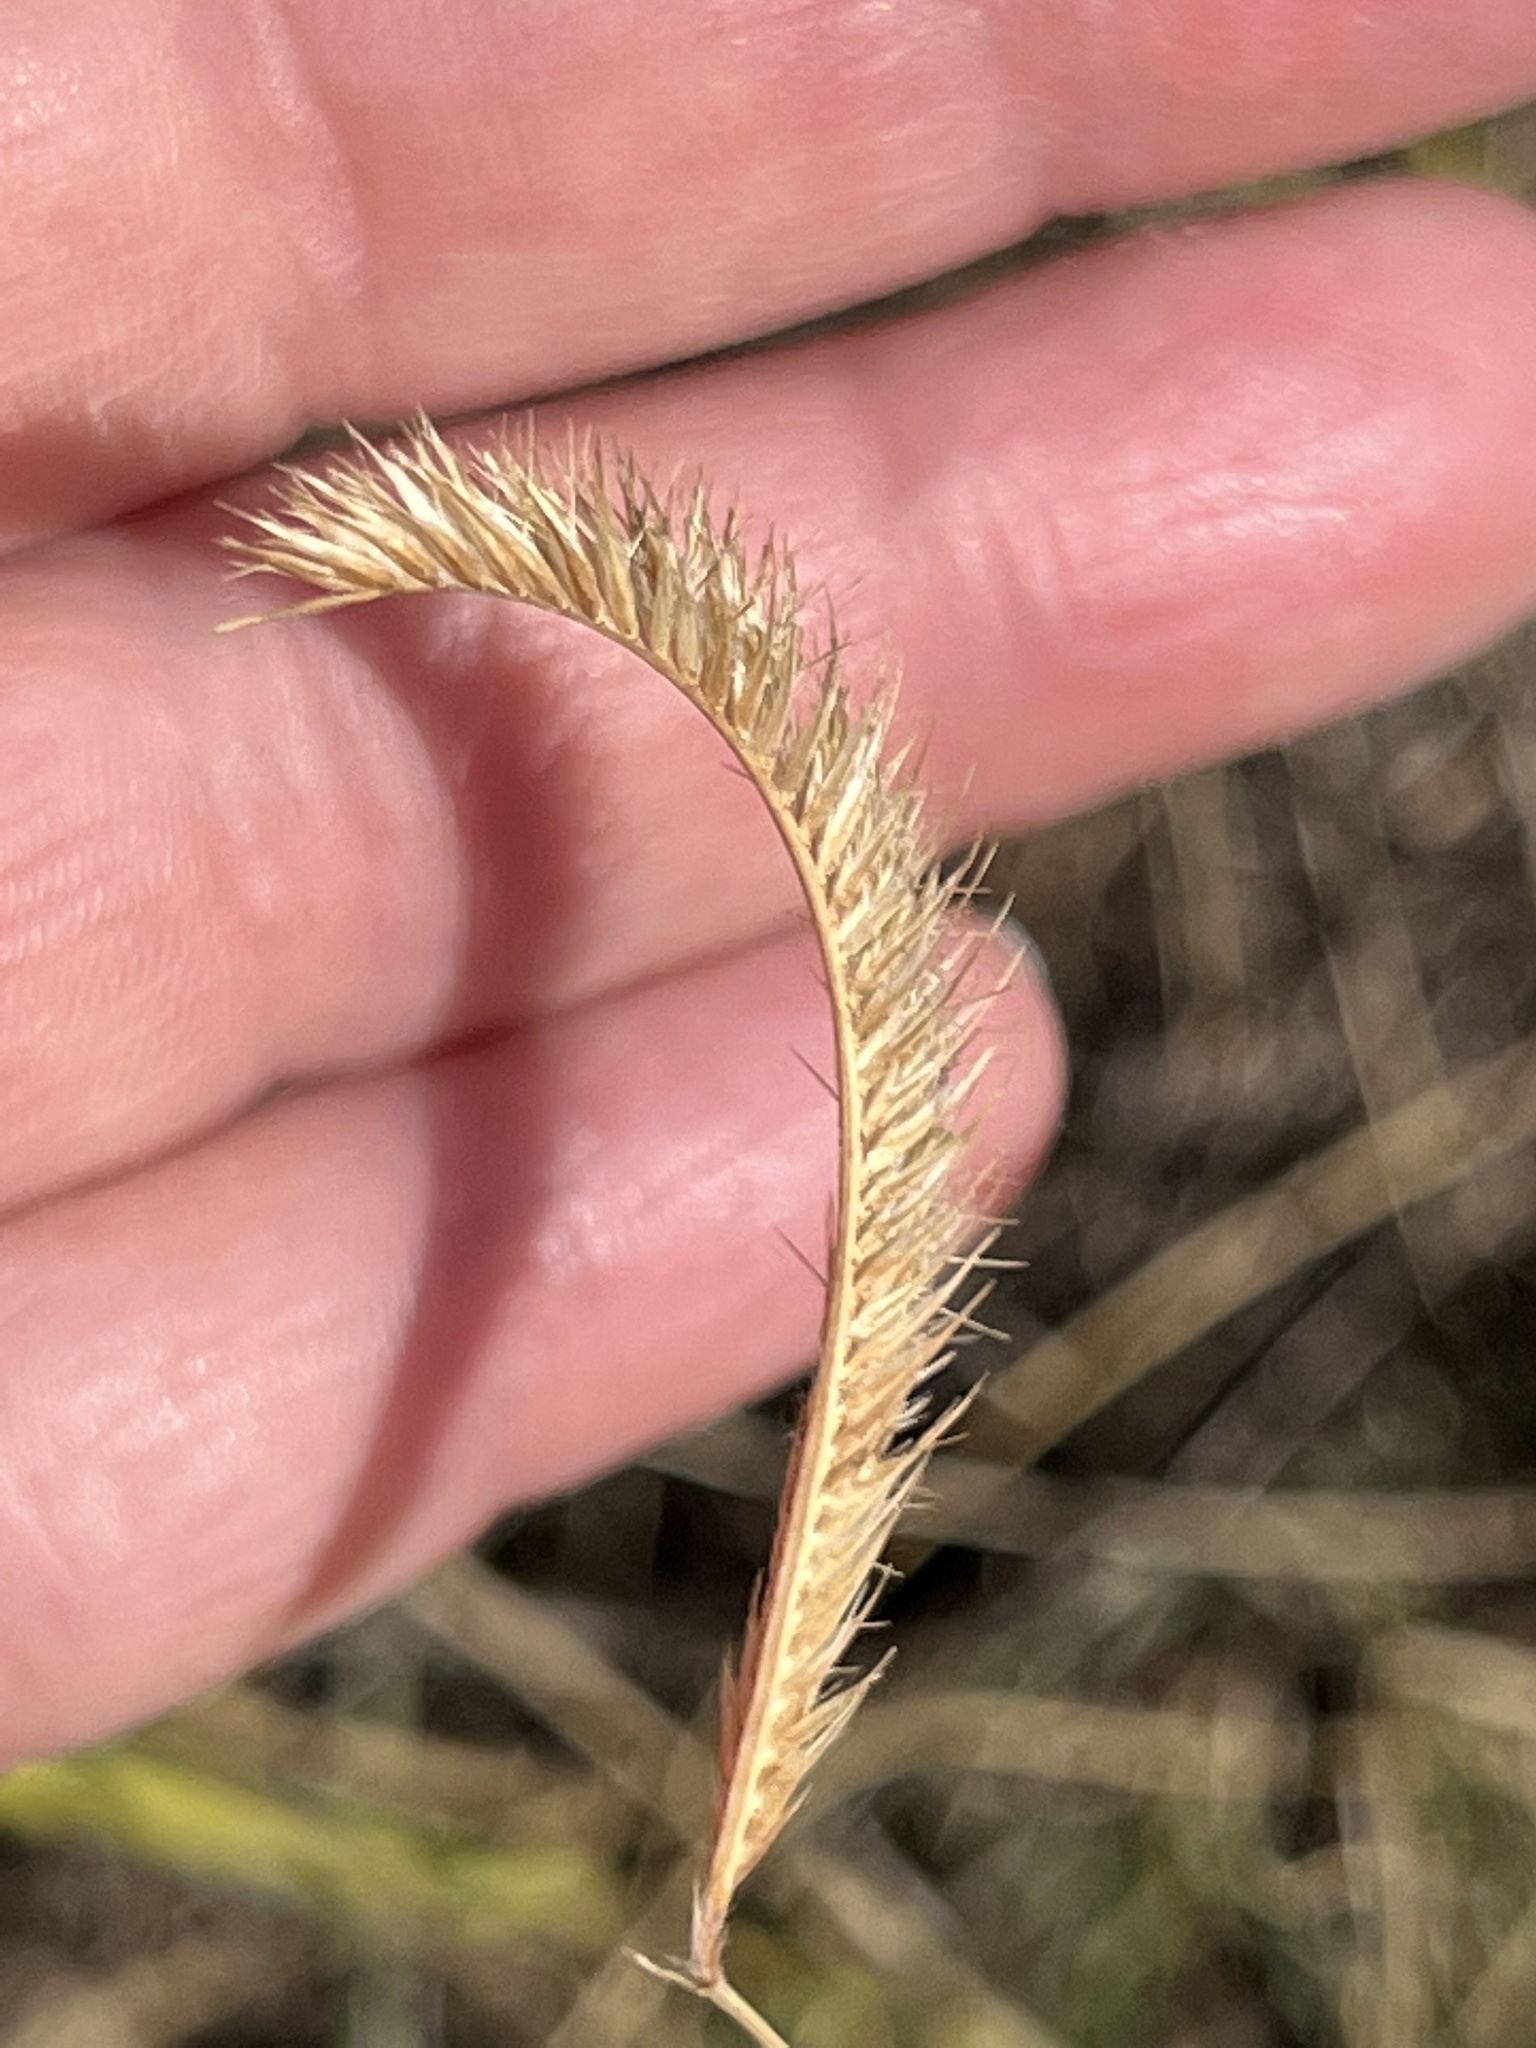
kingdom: Plantae
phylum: Tracheophyta
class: Liliopsida
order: Poales
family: Poaceae
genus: Bouteloua
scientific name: Bouteloua gracilis
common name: Blue grama
